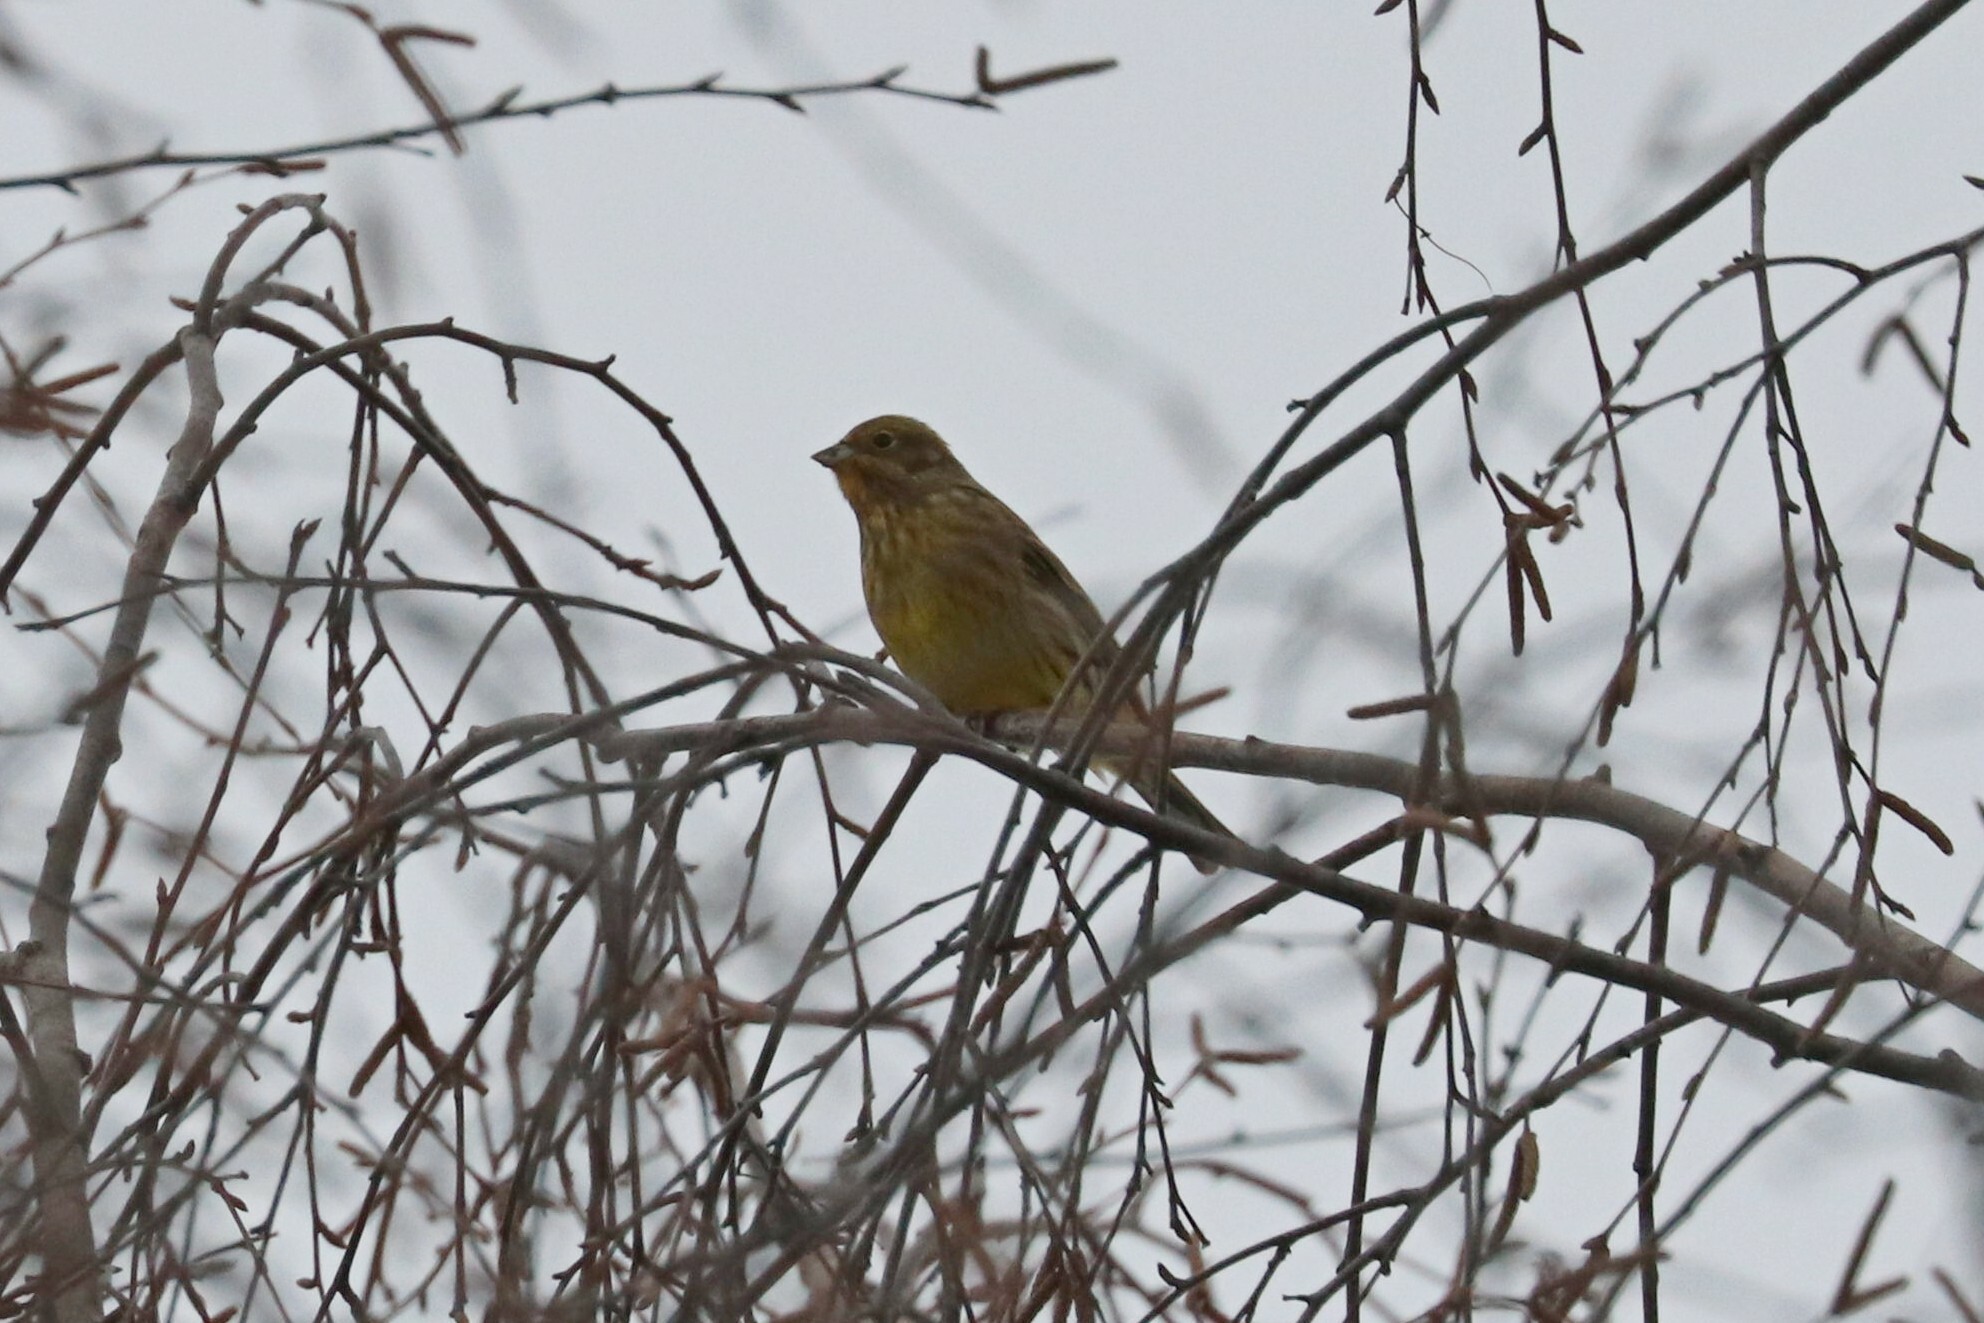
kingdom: Animalia
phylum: Chordata
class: Aves
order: Passeriformes
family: Emberizidae
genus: Emberiza
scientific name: Emberiza citrinella
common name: Yellowhammer
